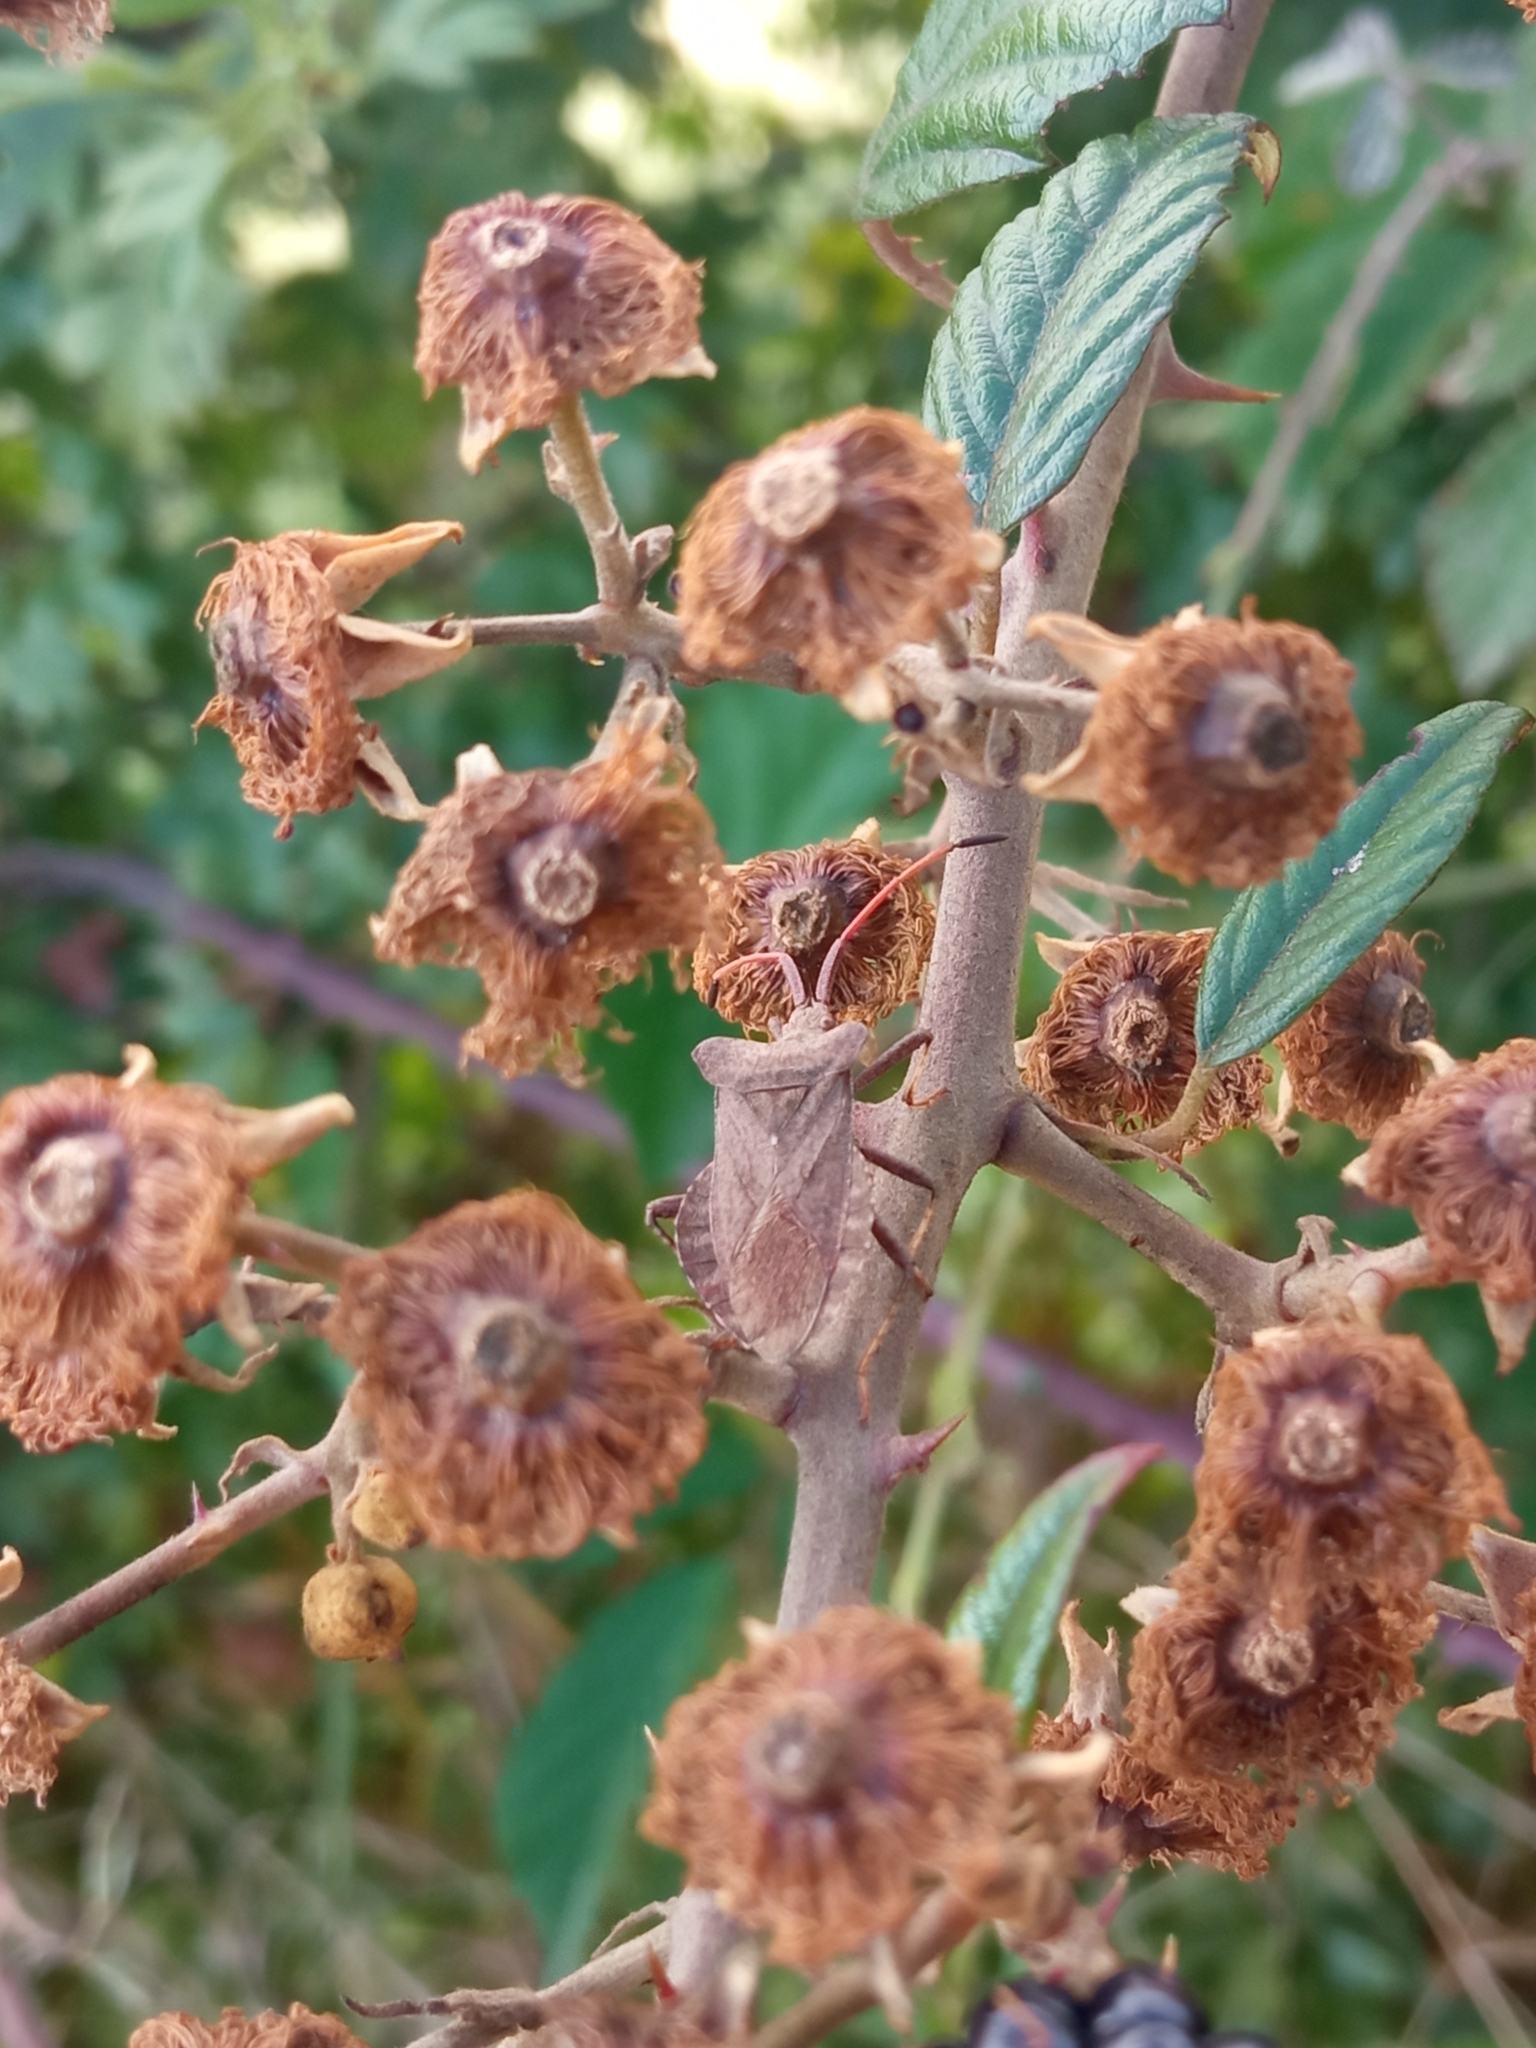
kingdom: Animalia
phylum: Arthropoda
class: Insecta
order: Hemiptera
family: Coreidae
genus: Coreus
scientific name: Coreus marginatus
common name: Dock bug
